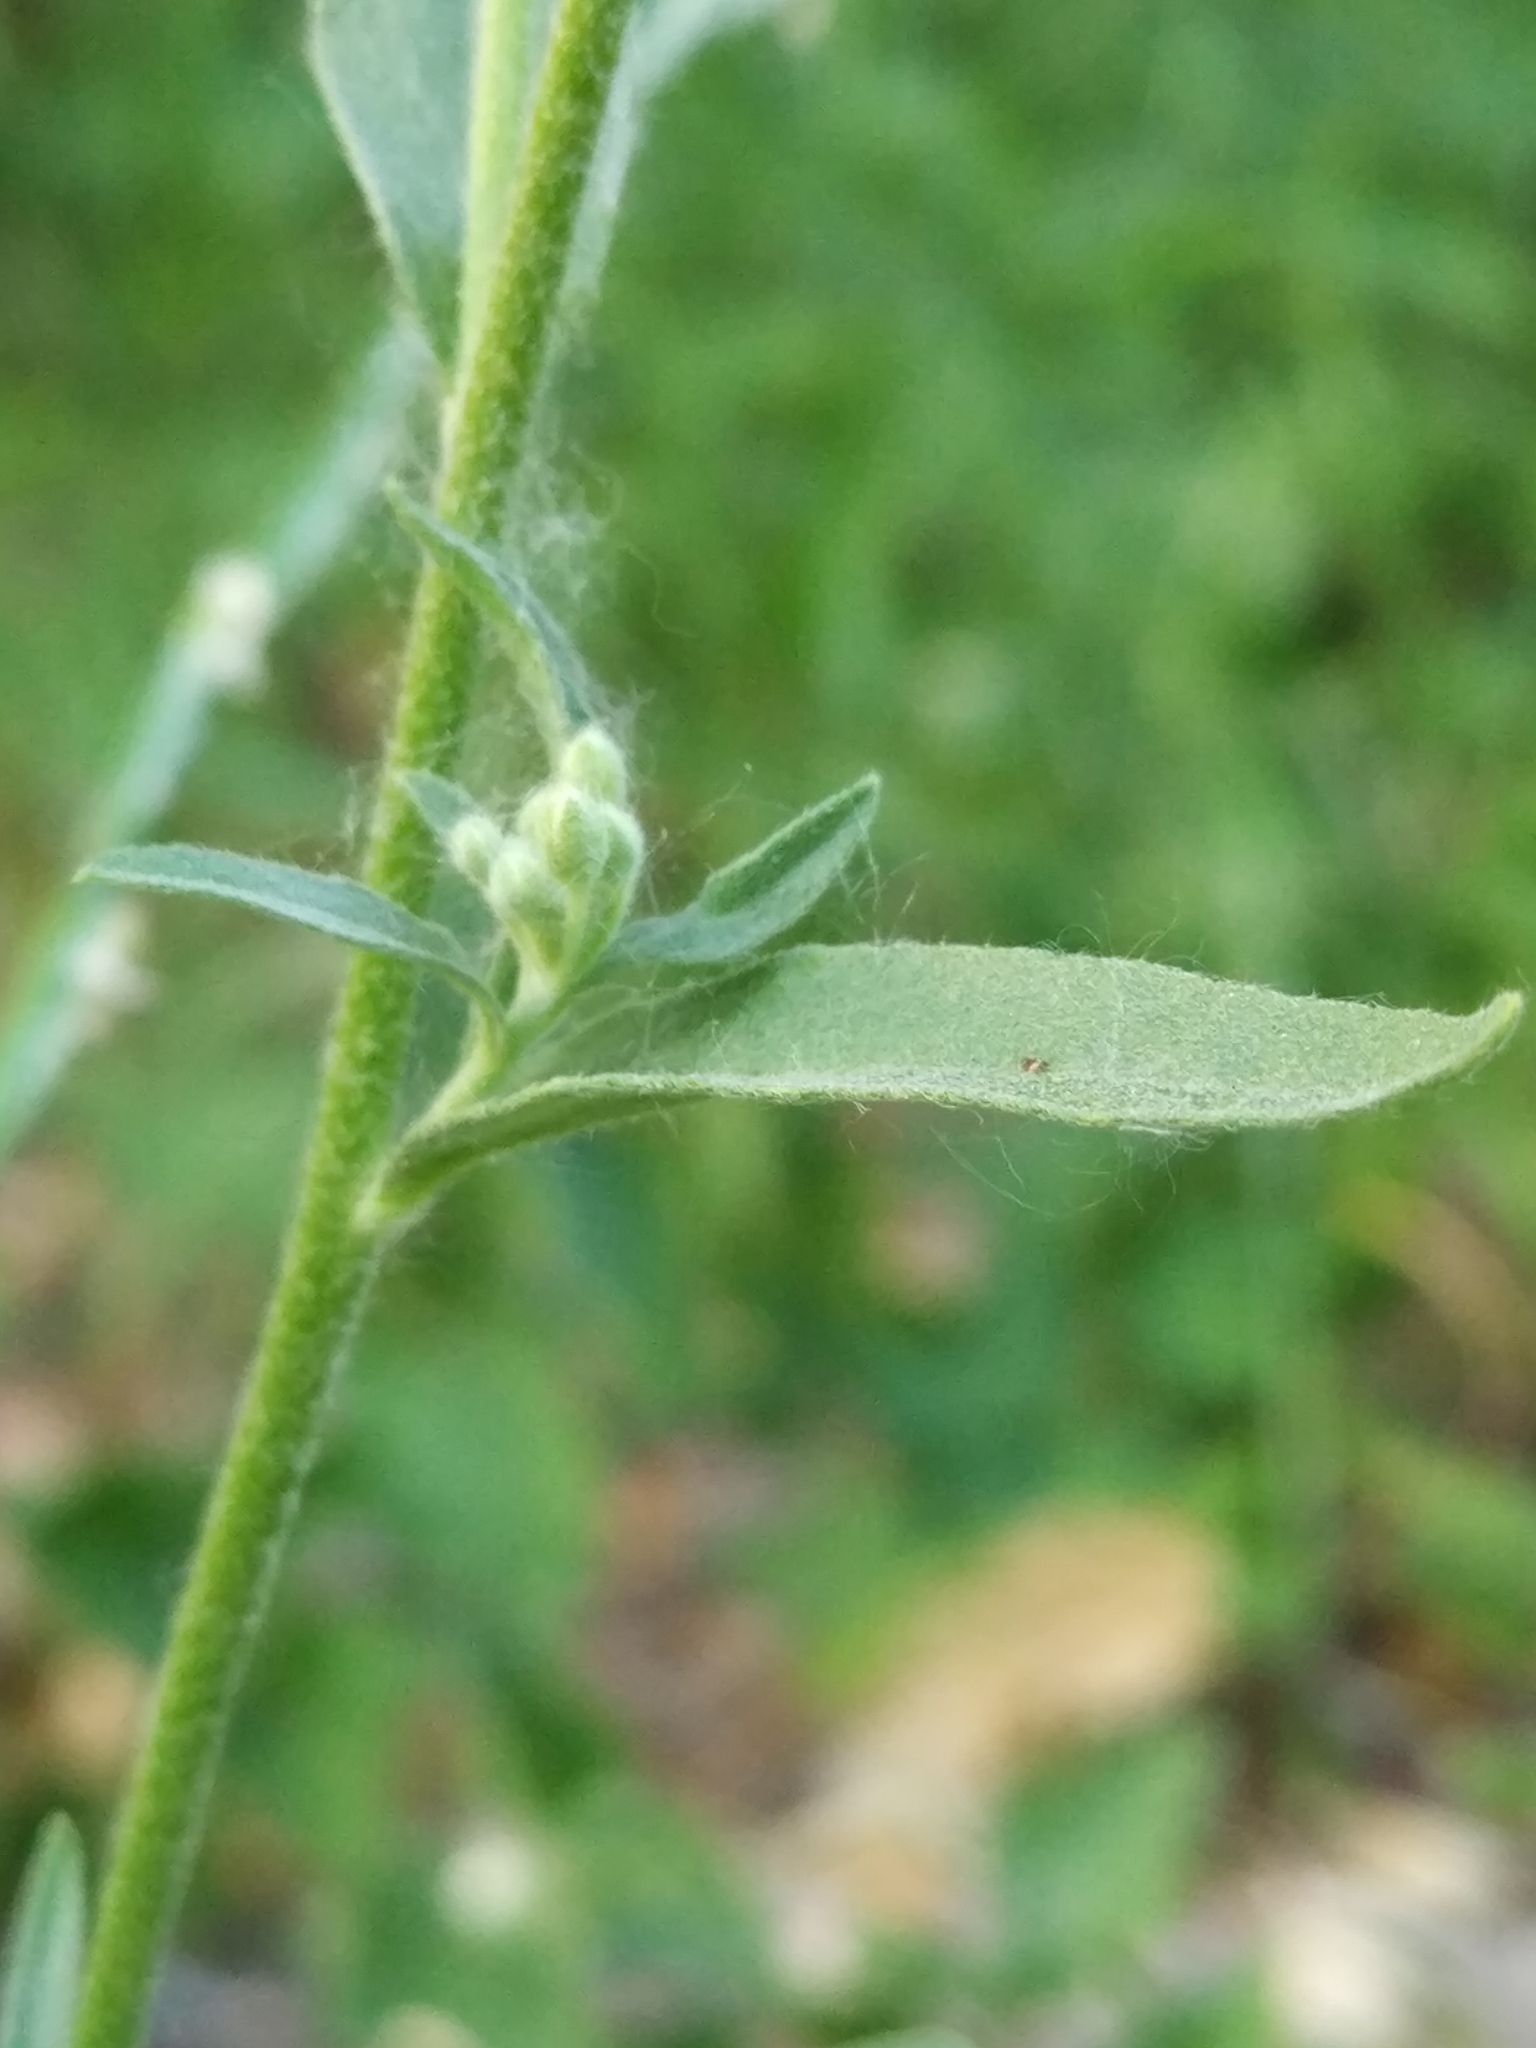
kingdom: Plantae
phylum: Tracheophyta
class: Magnoliopsida
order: Brassicales
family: Brassicaceae
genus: Berteroa
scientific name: Berteroa incana
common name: Hoary alison
